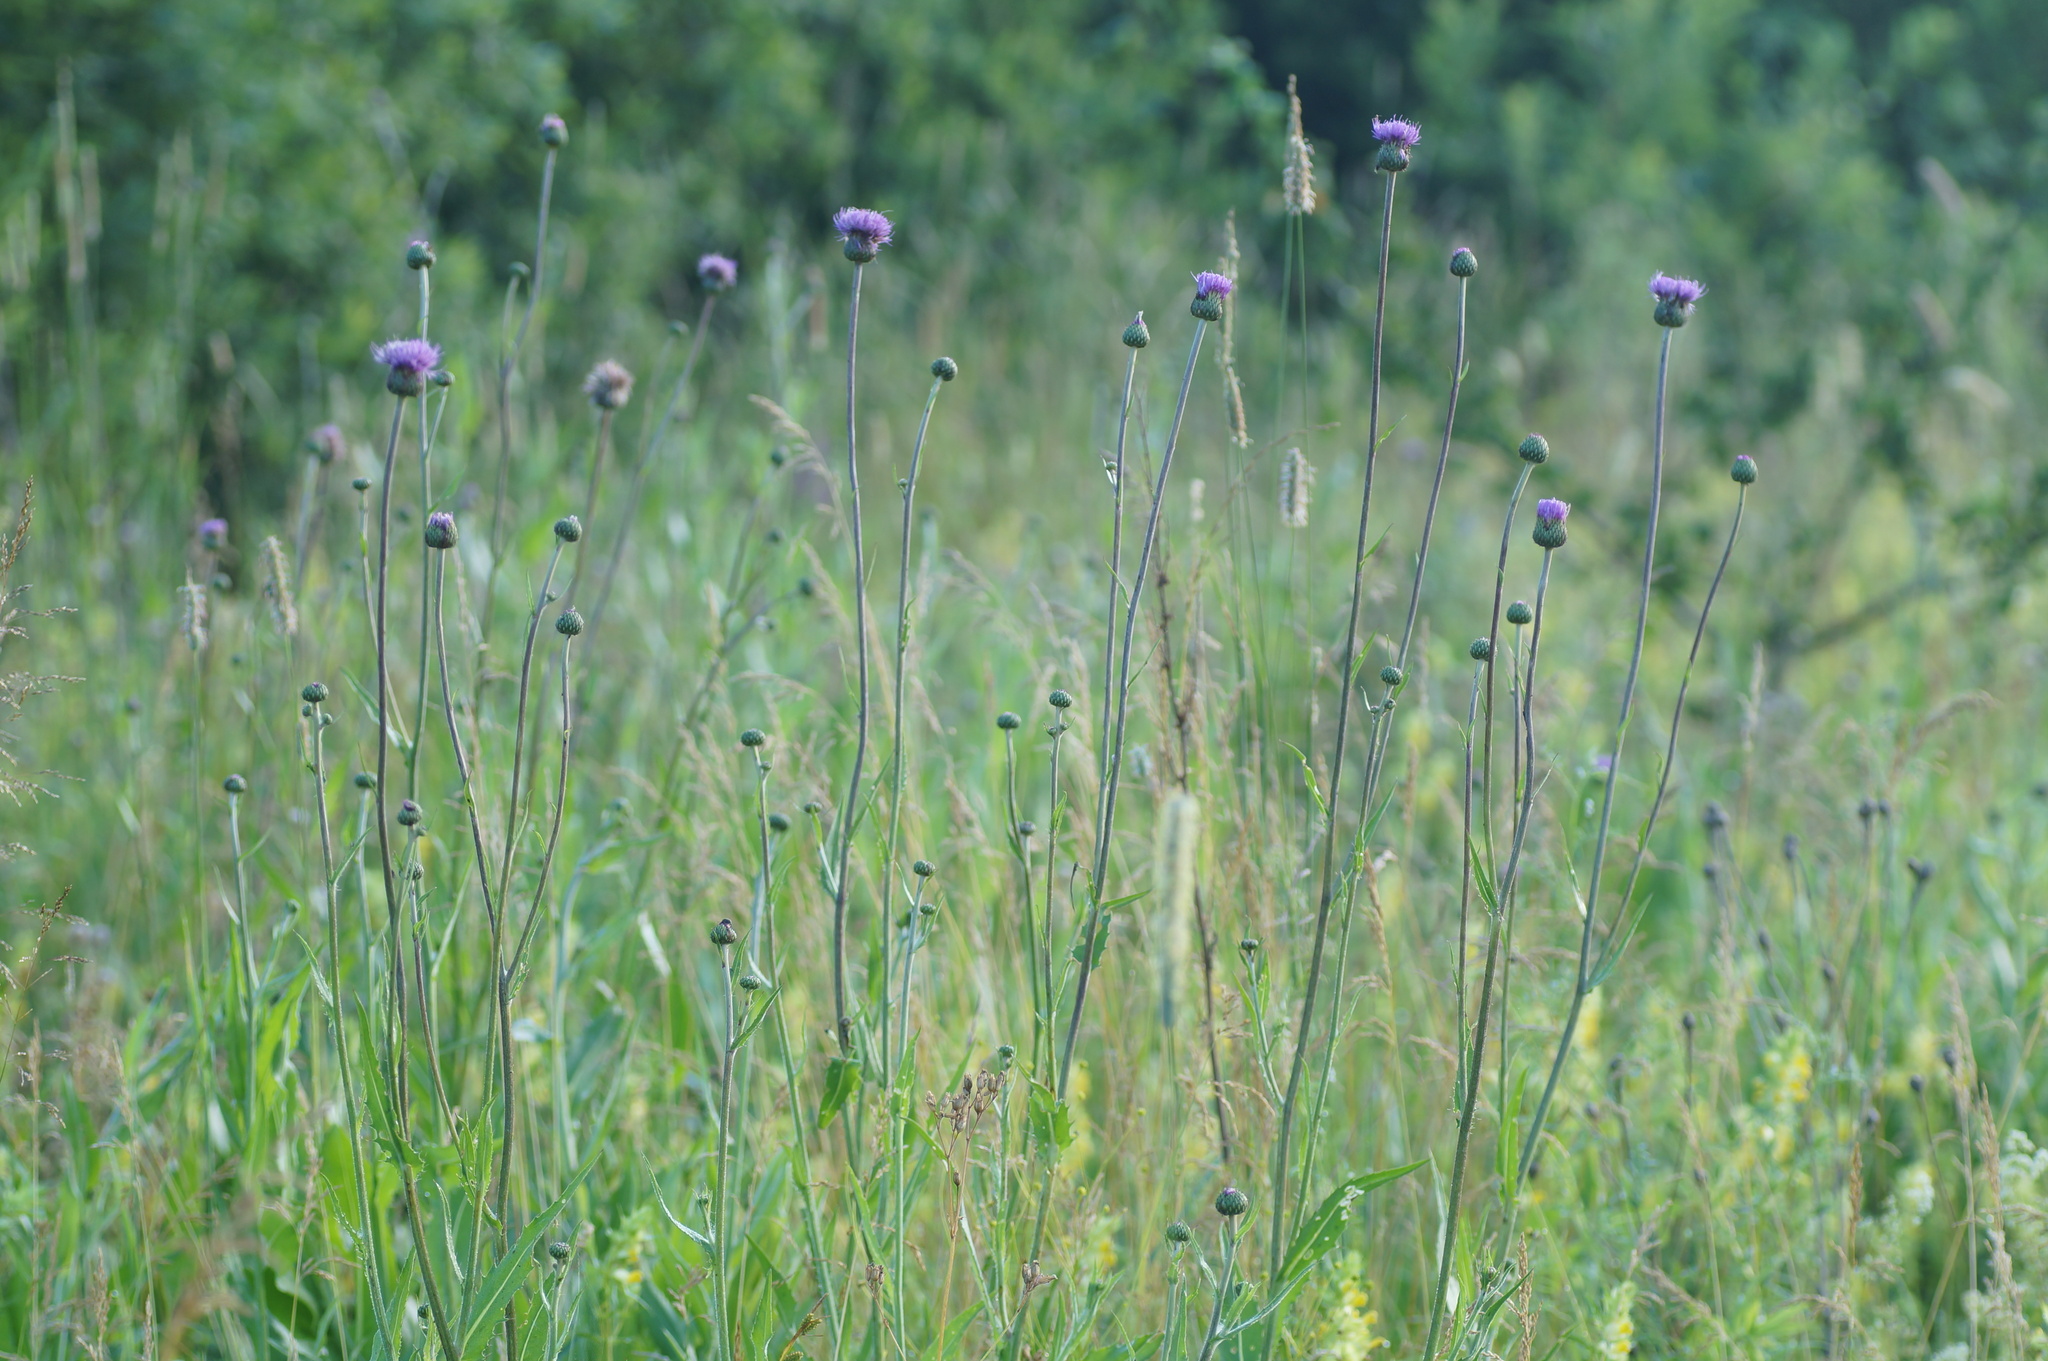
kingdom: Plantae
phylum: Tracheophyta
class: Magnoliopsida
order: Asterales
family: Asteraceae
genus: Cirsium
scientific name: Cirsium canum
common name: Queen anne's thistle
